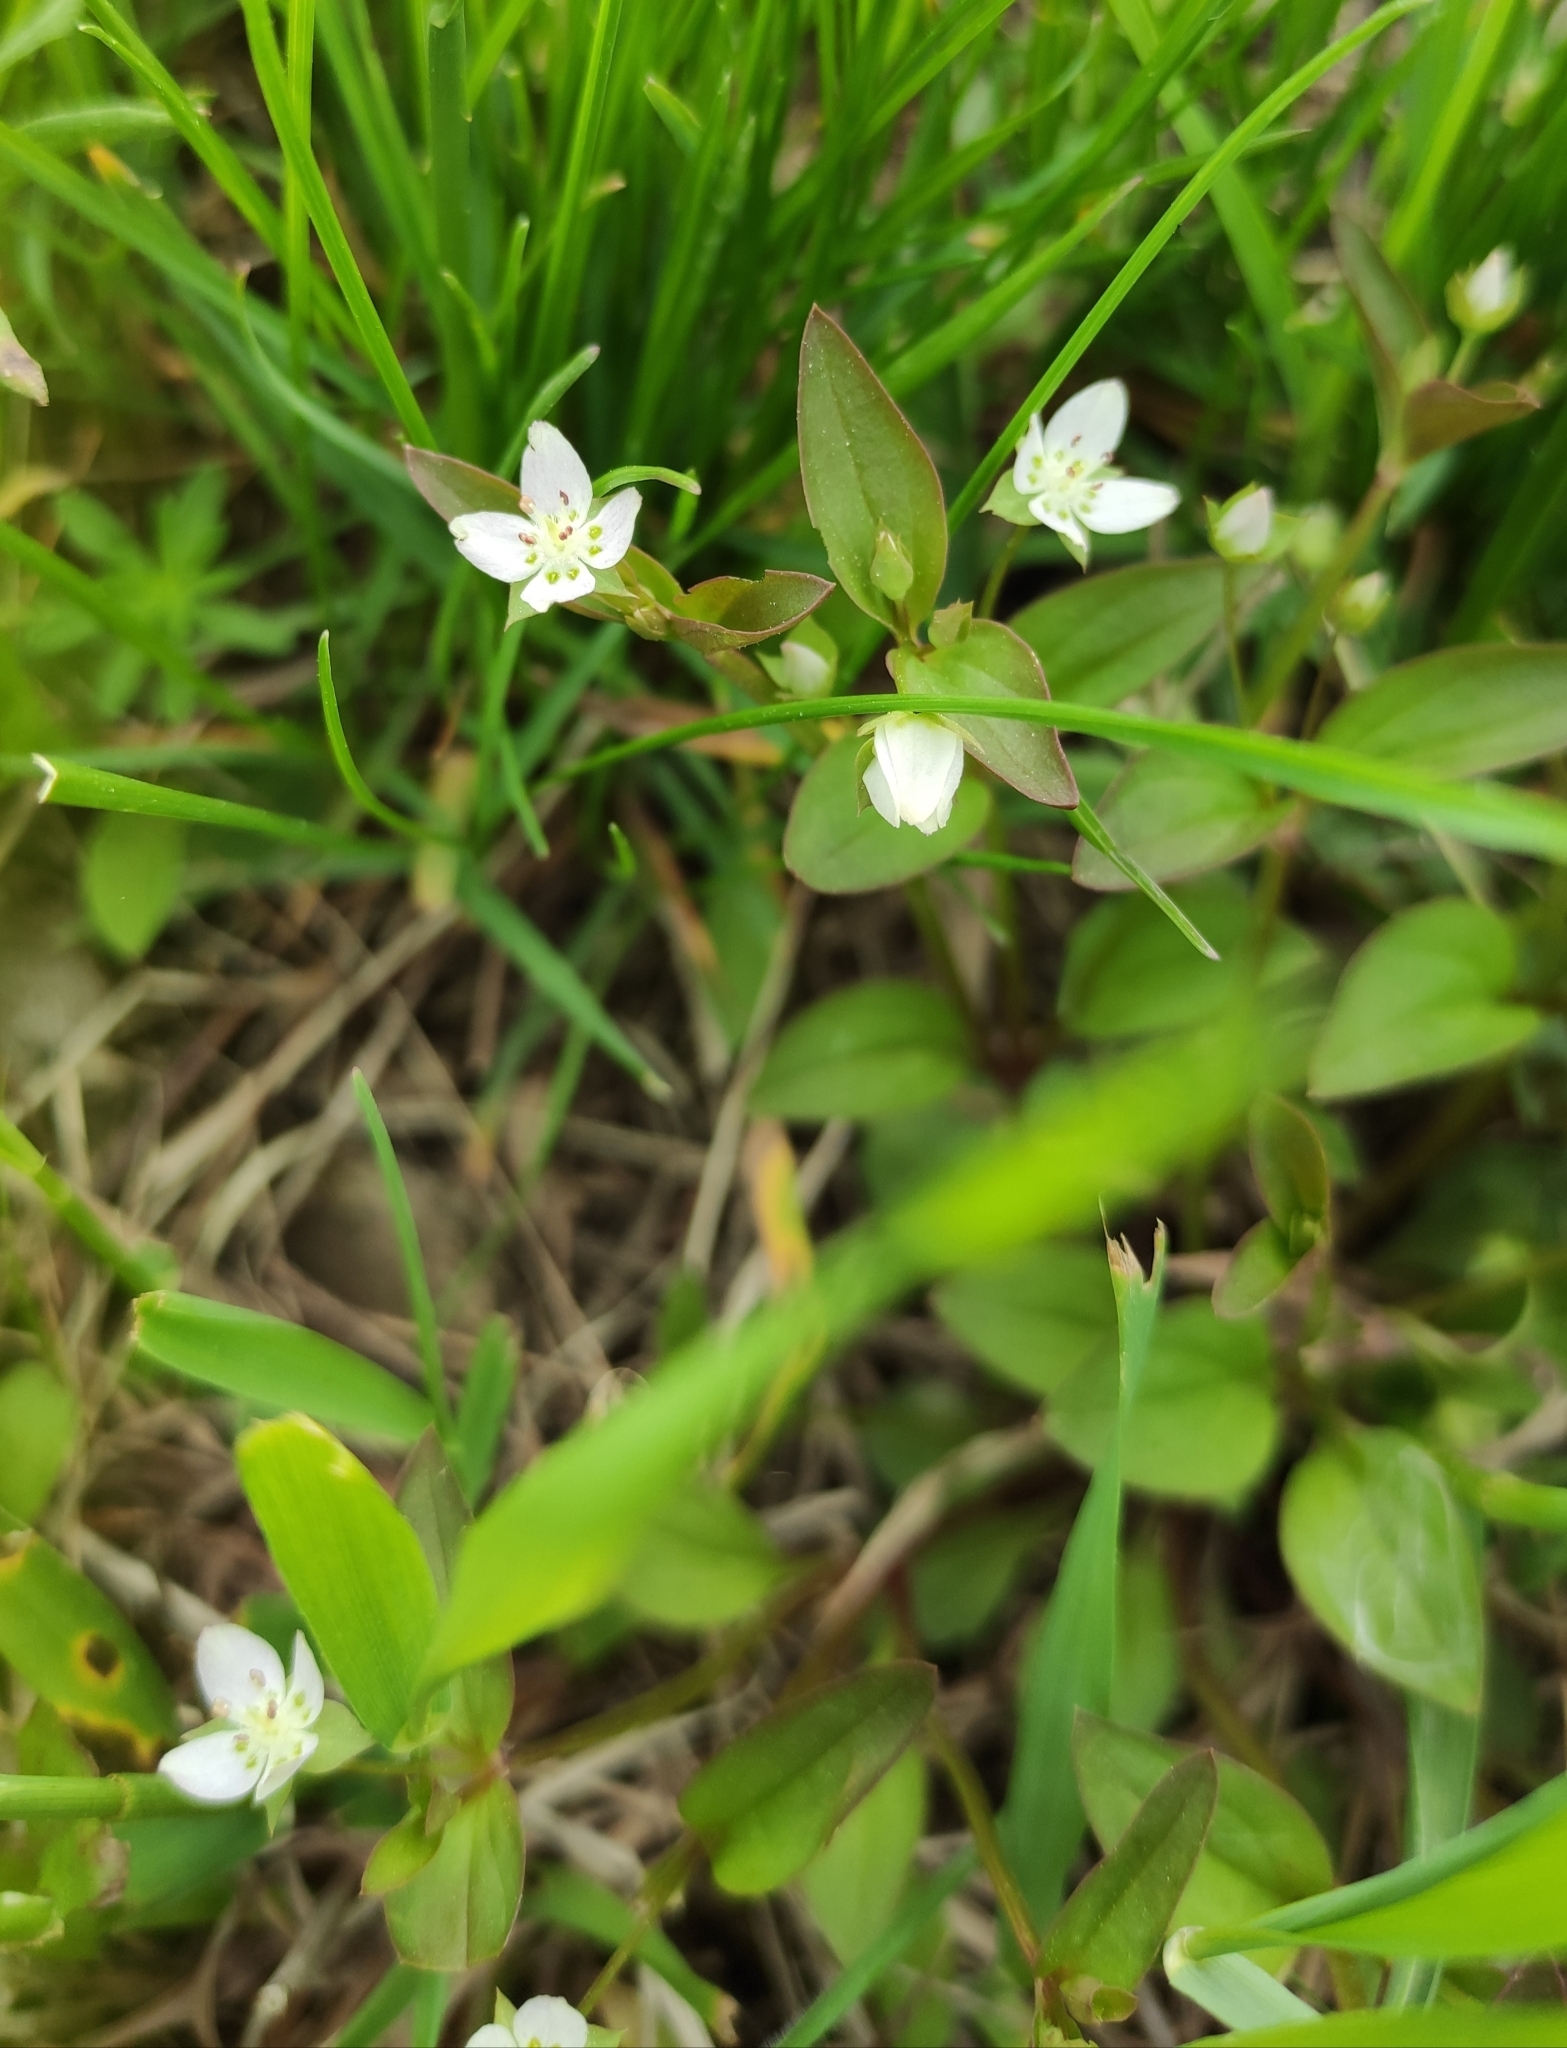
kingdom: Plantae
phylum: Tracheophyta
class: Magnoliopsida
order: Gentianales
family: Gentianaceae
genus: Swertia
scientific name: Swertia dichotoma
